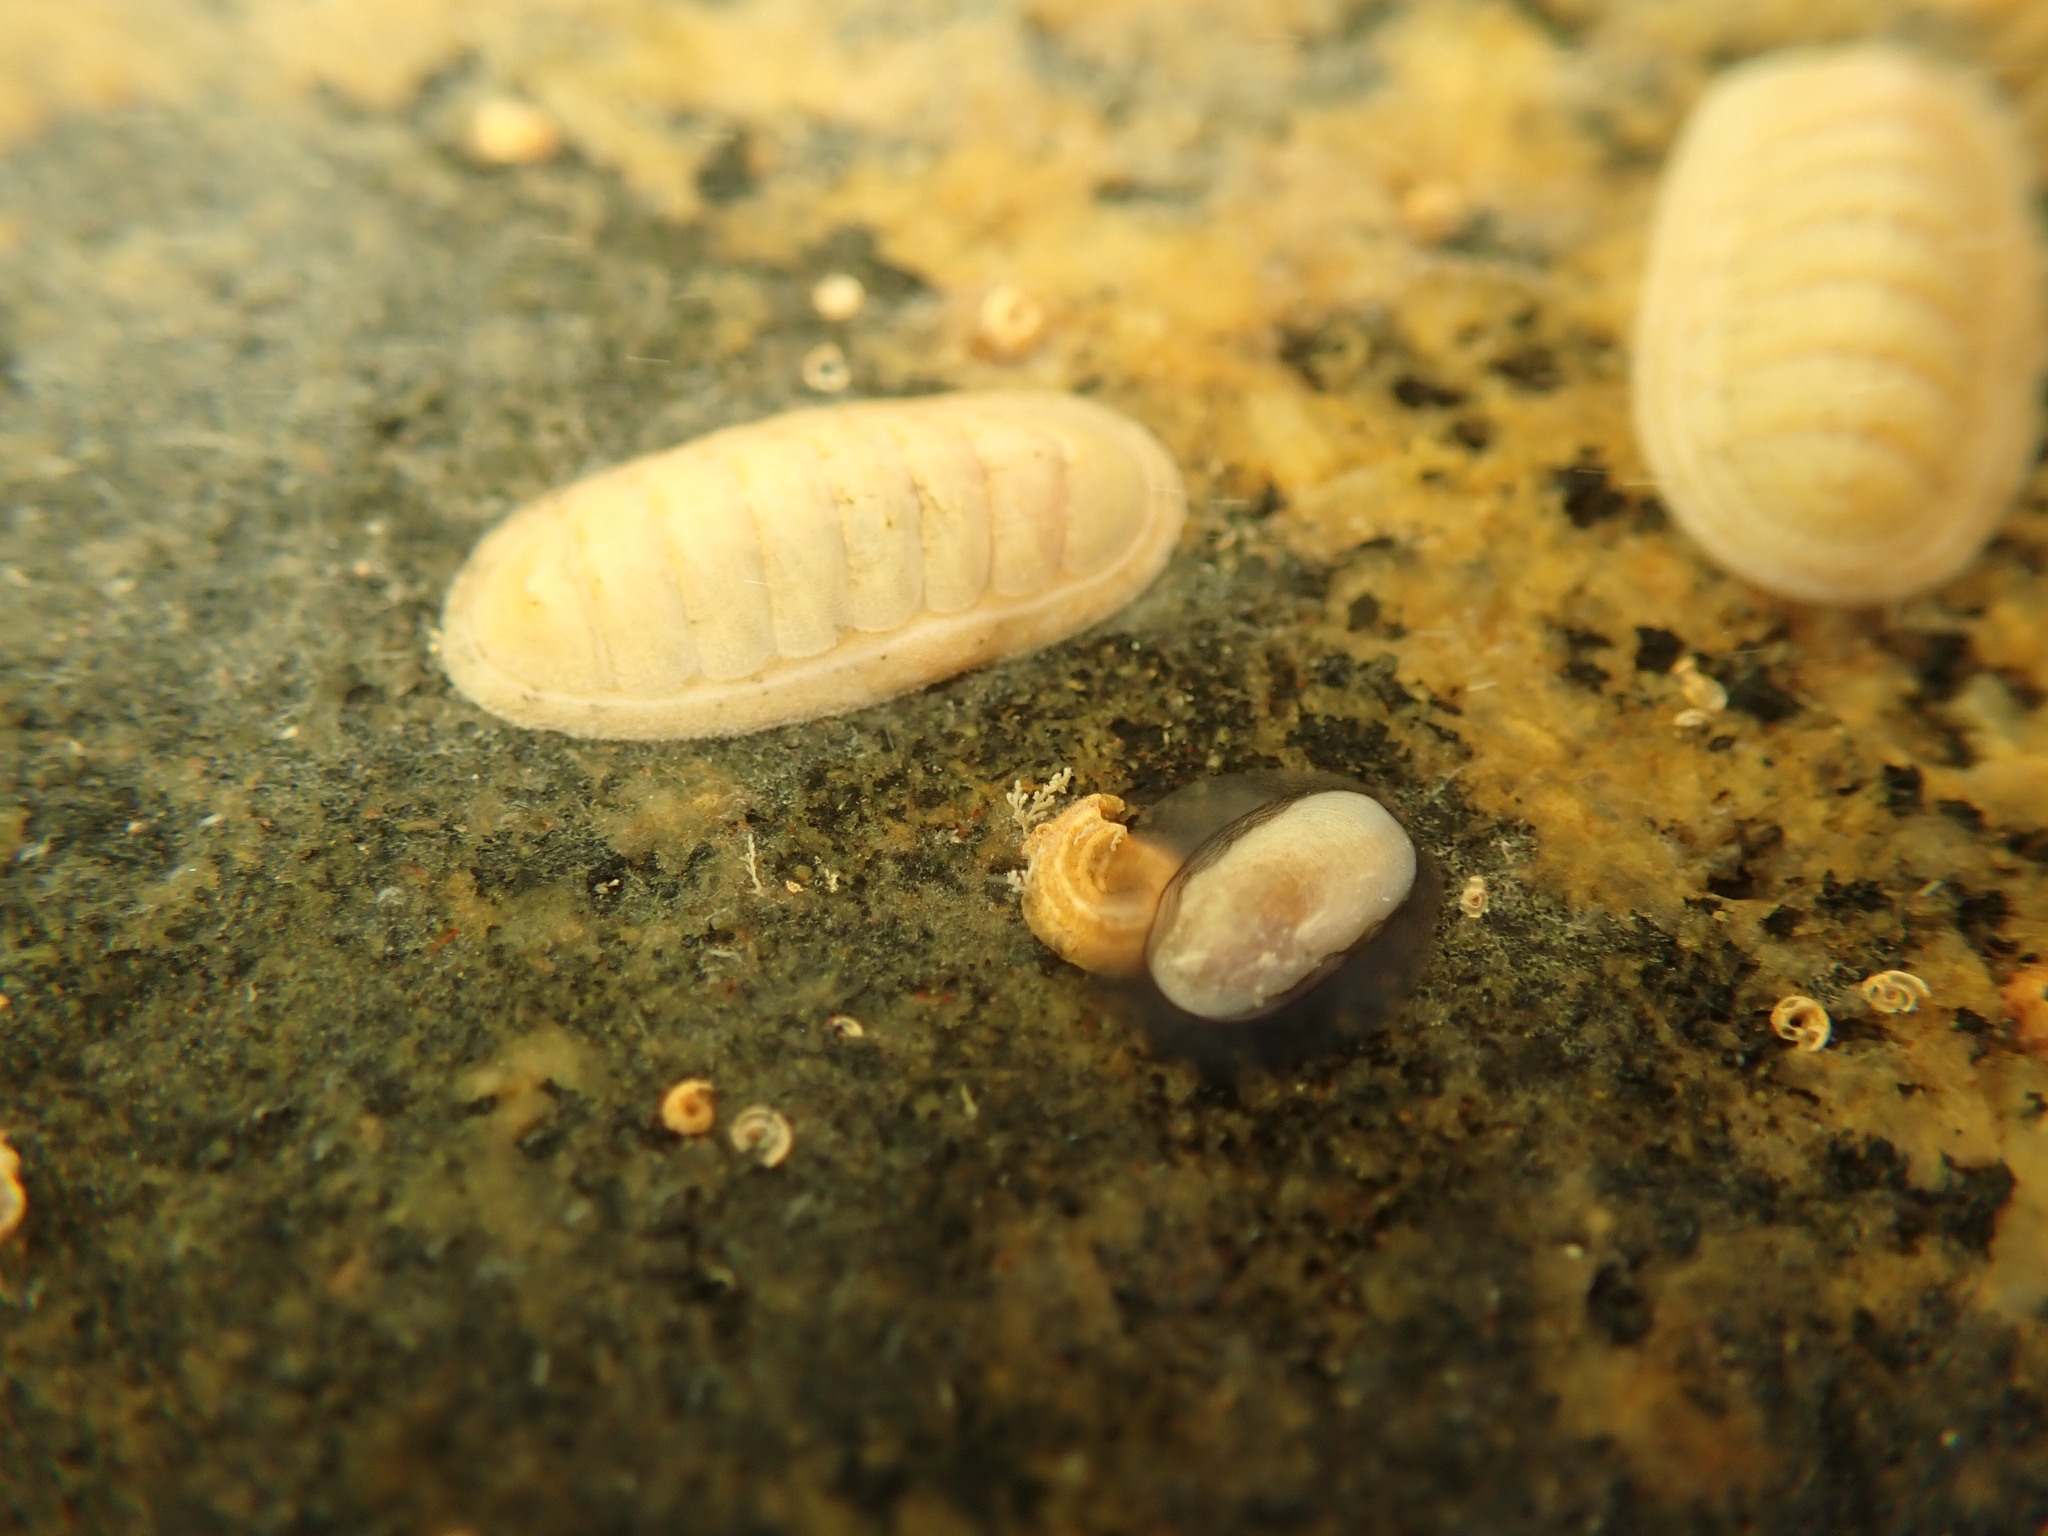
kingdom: Animalia
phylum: Mollusca
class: Polyplacophora
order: Chitonida
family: Ischnochitonidae
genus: Ischnochiton
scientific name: Ischnochiton circumvallatus
